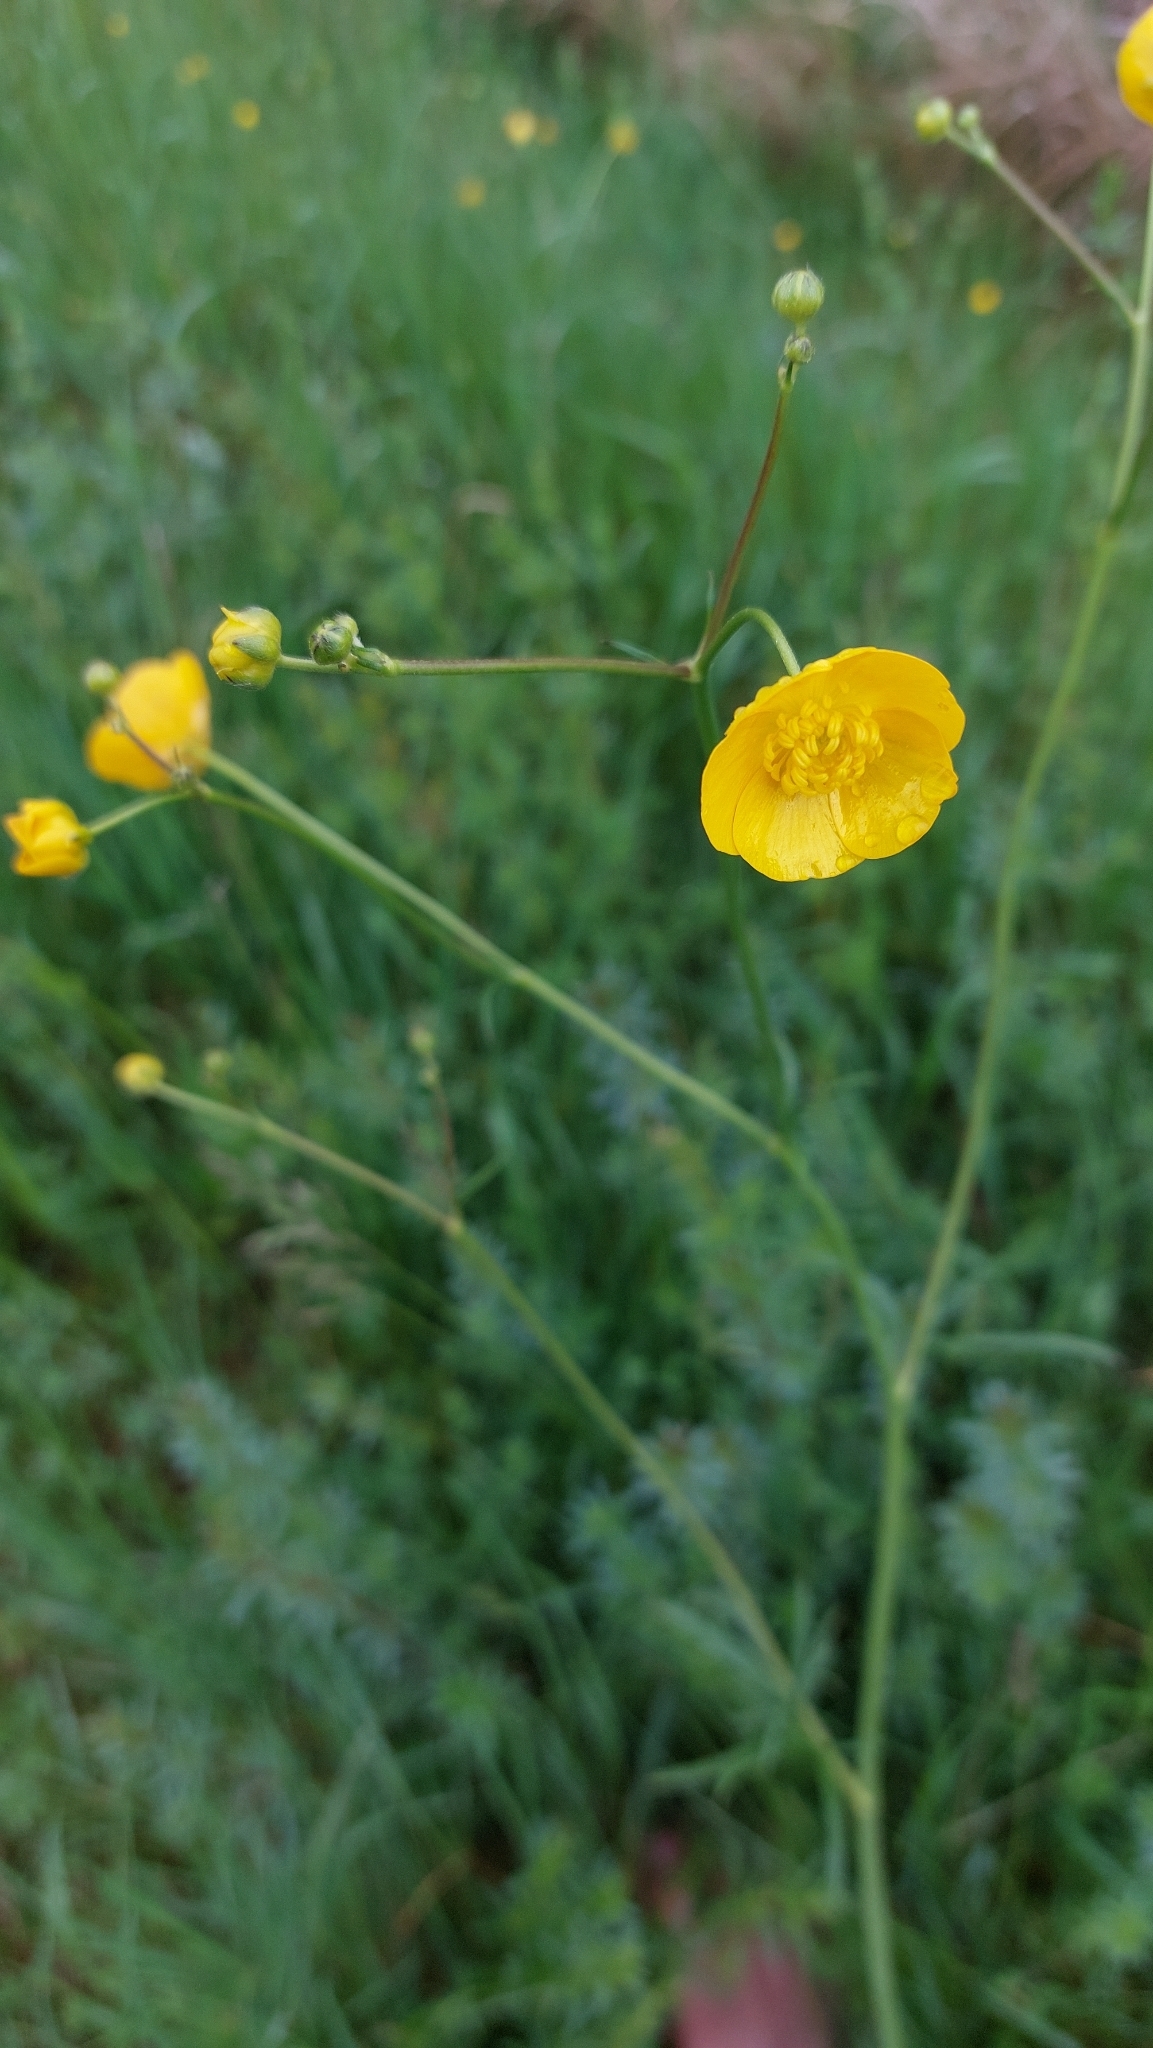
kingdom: Plantae
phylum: Tracheophyta
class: Magnoliopsida
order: Ranunculales
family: Ranunculaceae
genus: Ranunculus
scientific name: Ranunculus acris
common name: Meadow buttercup
